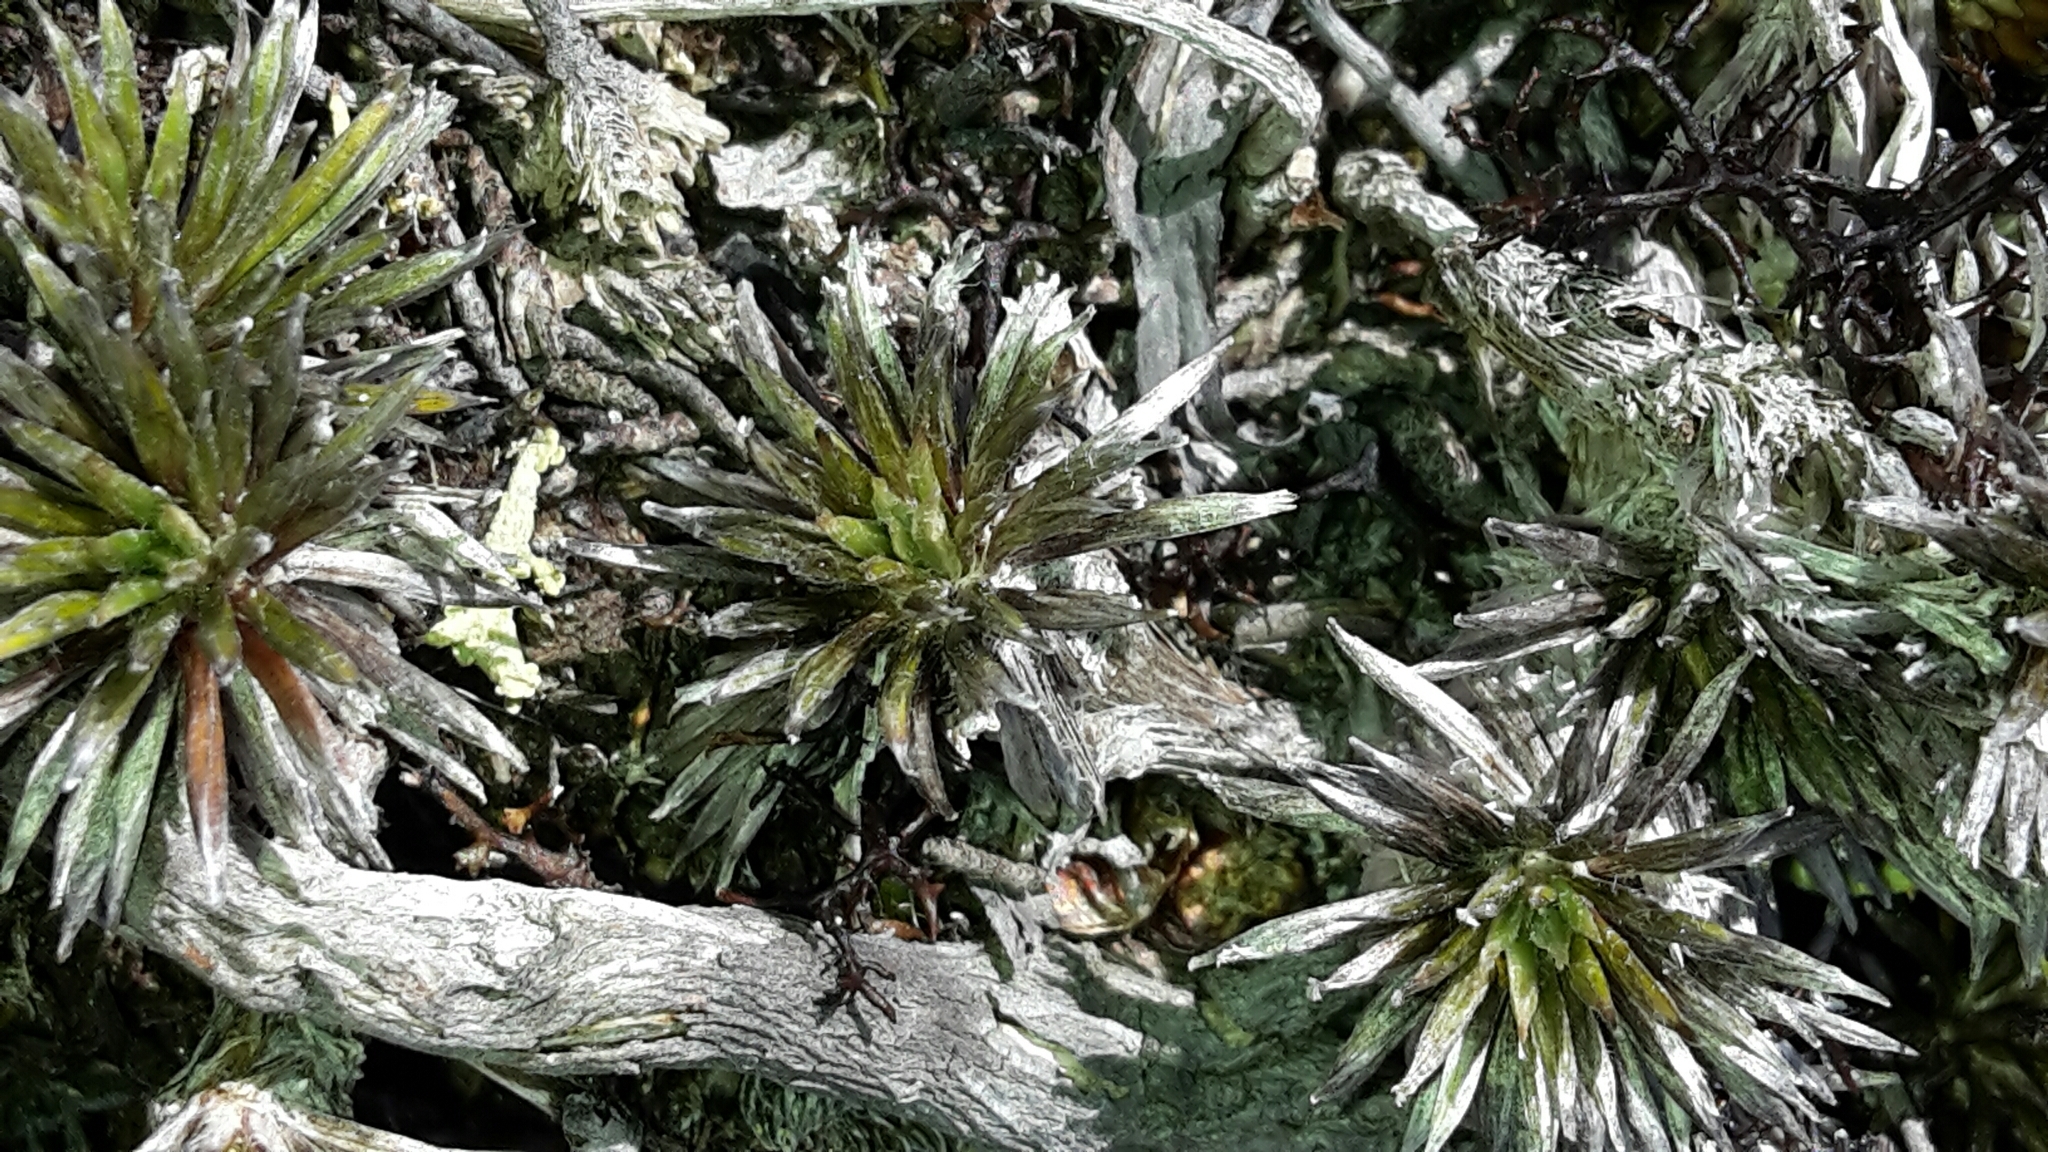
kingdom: Plantae
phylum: Tracheophyta
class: Magnoliopsida
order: Asterales
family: Asteraceae
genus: Celmisia
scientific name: Celmisia laricifolia
